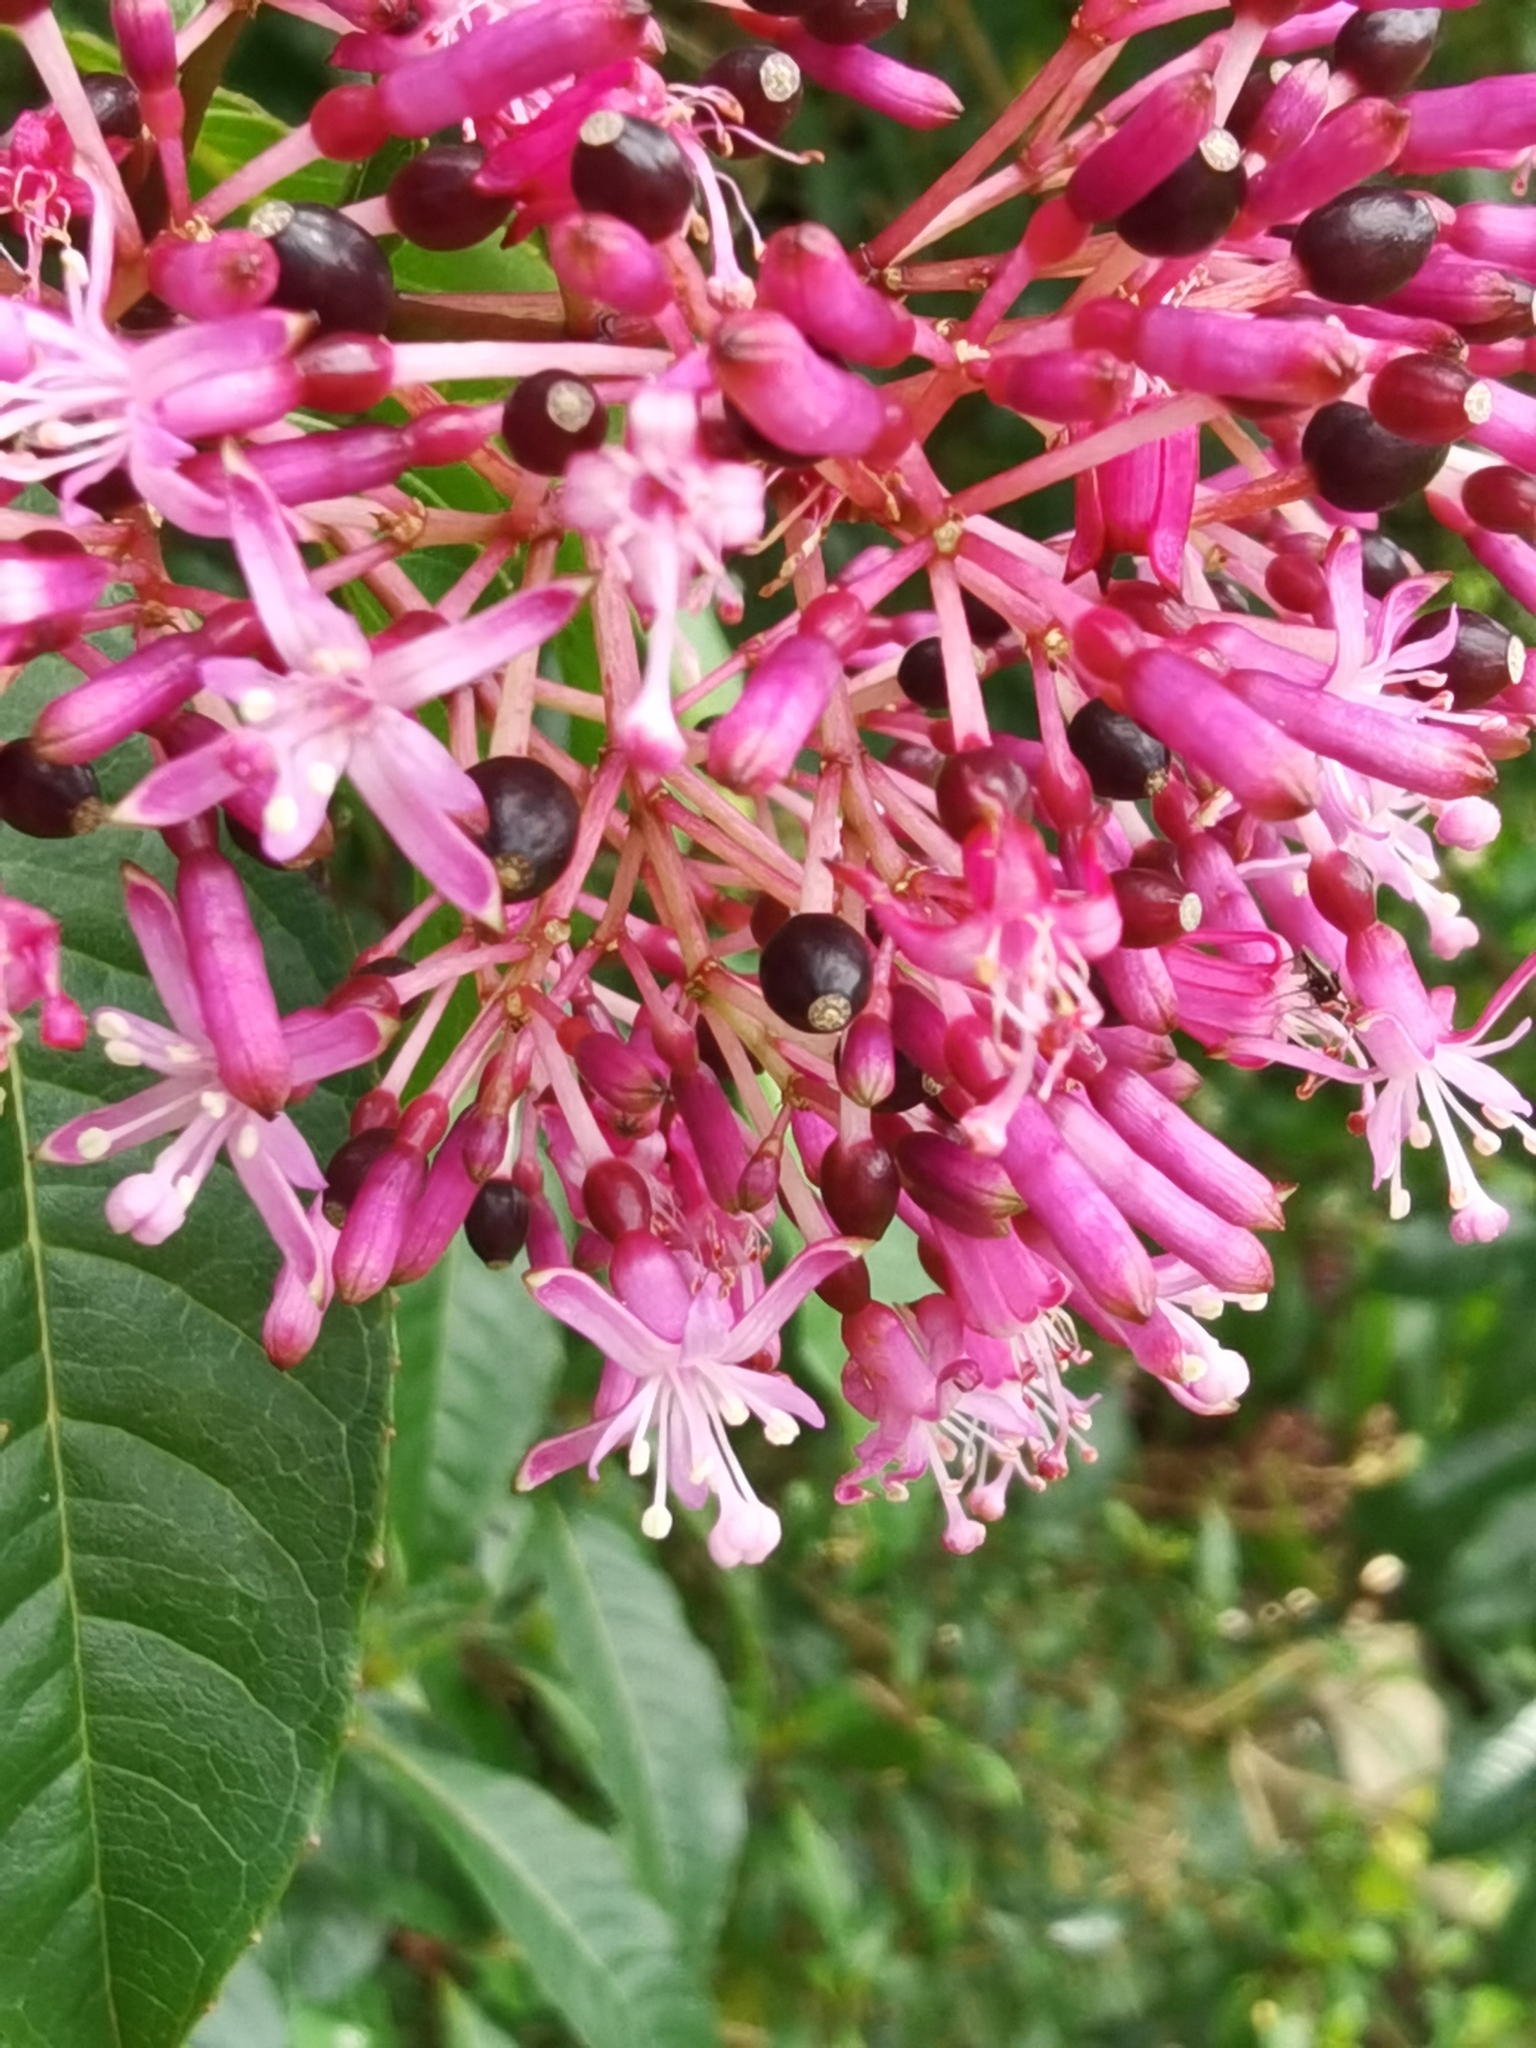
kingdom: Plantae
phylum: Tracheophyta
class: Magnoliopsida
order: Myrtales
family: Onagraceae
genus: Fuchsia
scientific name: Fuchsia paniculata
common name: Shrubby fuchsia
